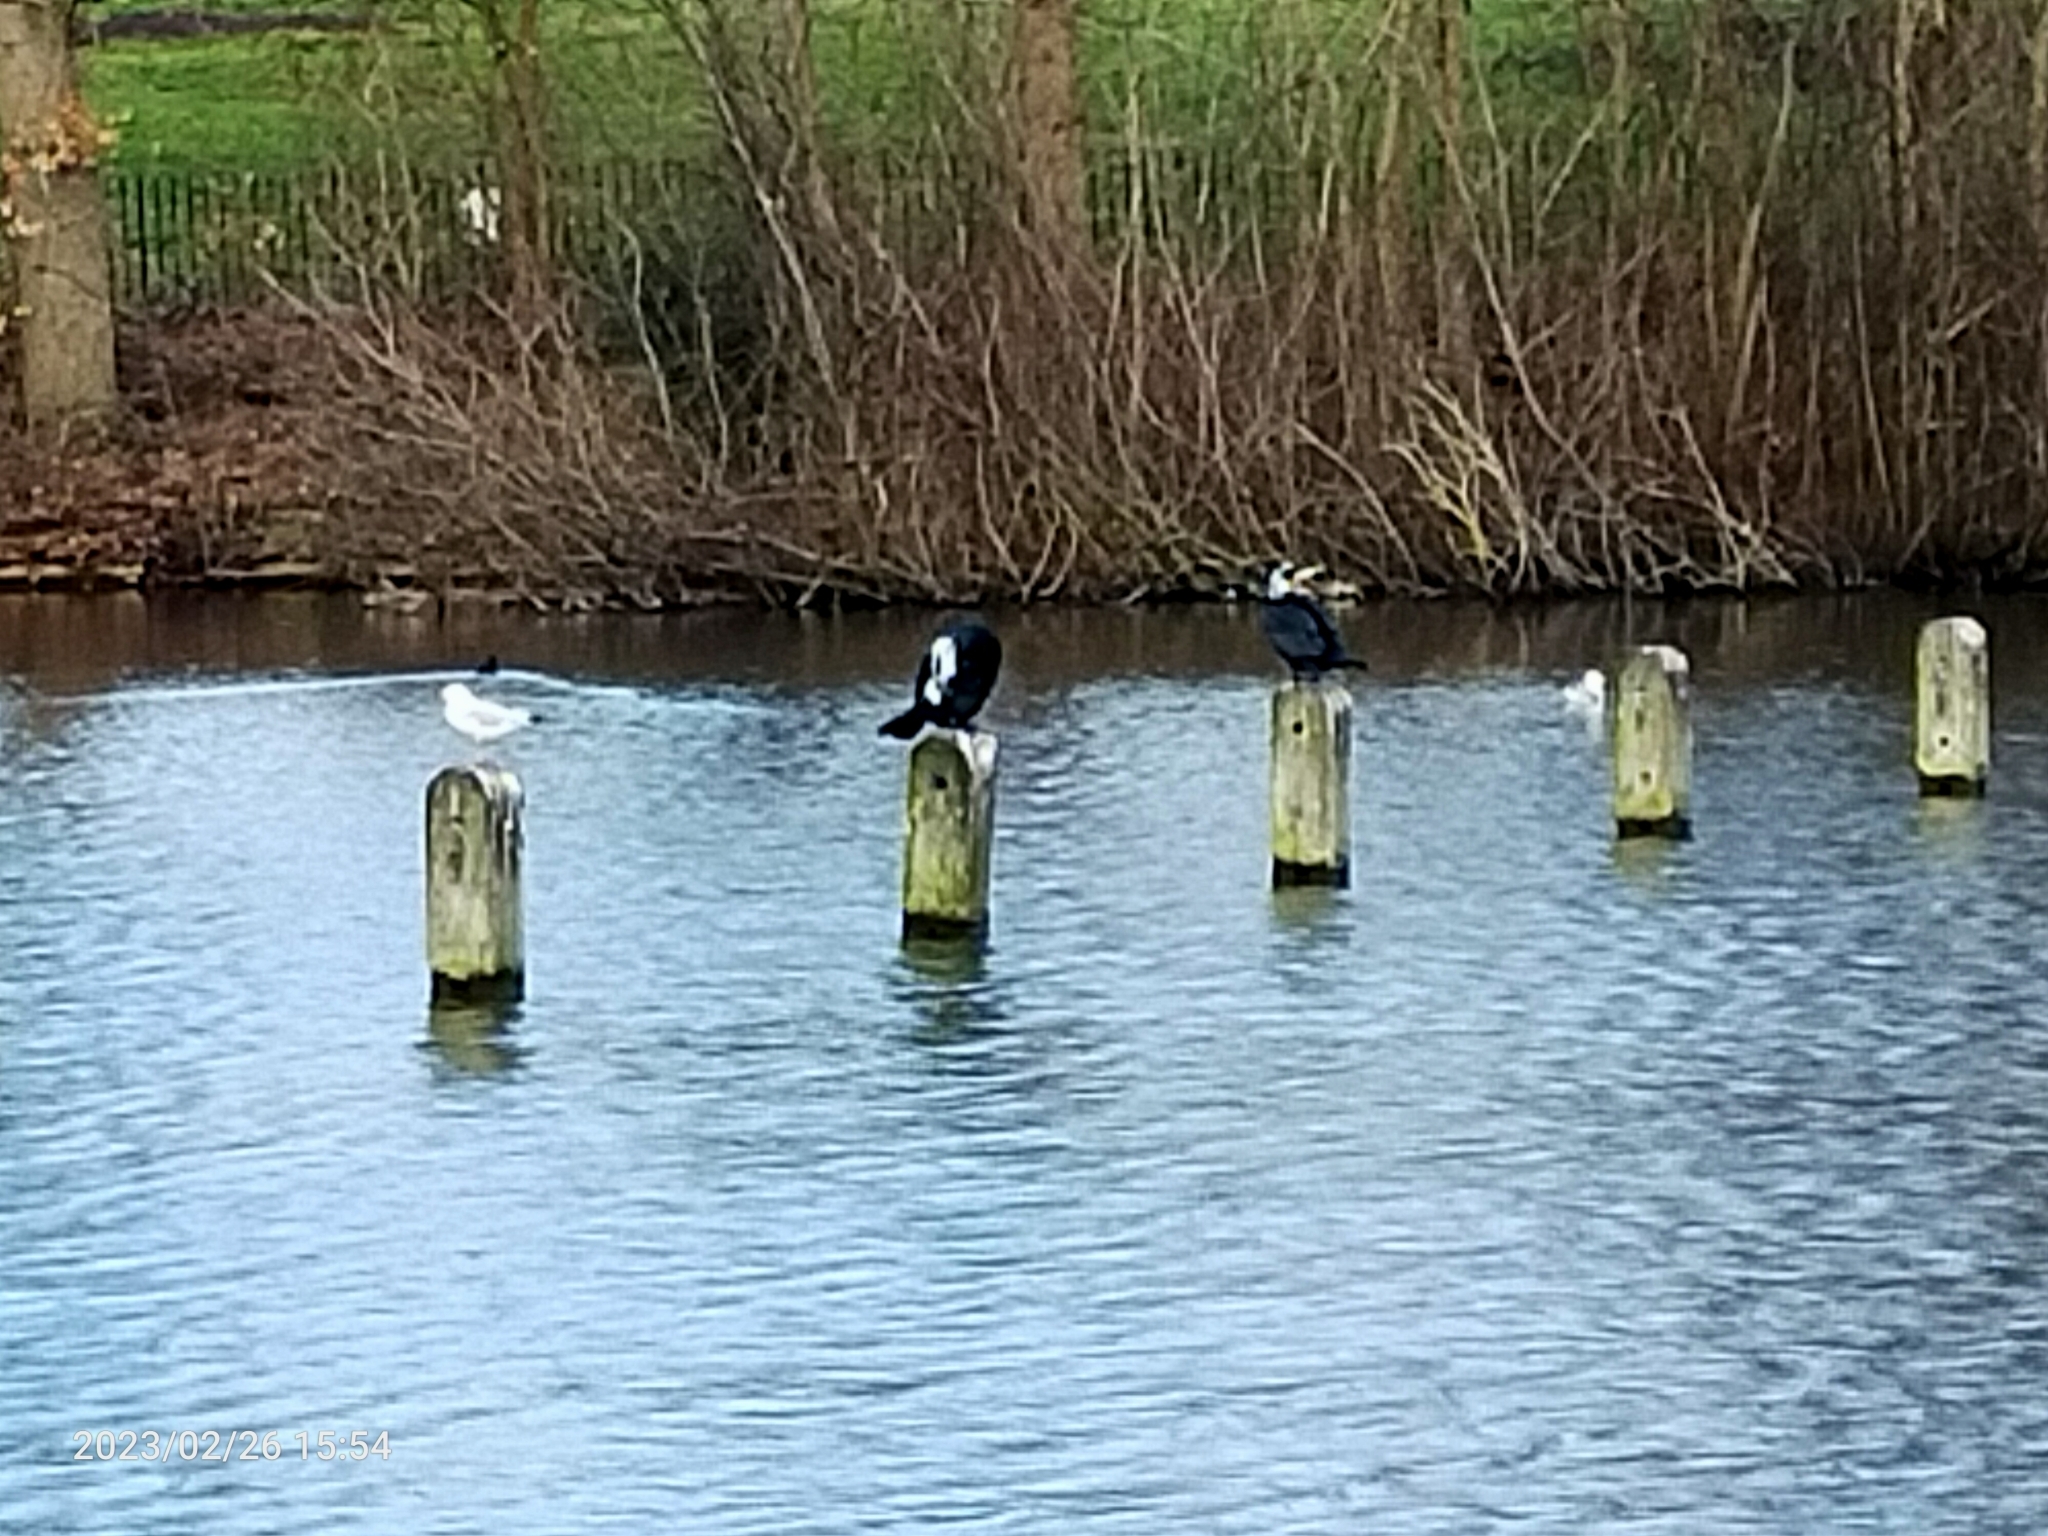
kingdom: Animalia
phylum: Chordata
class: Aves
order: Suliformes
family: Phalacrocoracidae
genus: Phalacrocorax
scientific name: Phalacrocorax carbo
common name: Great cormorant
